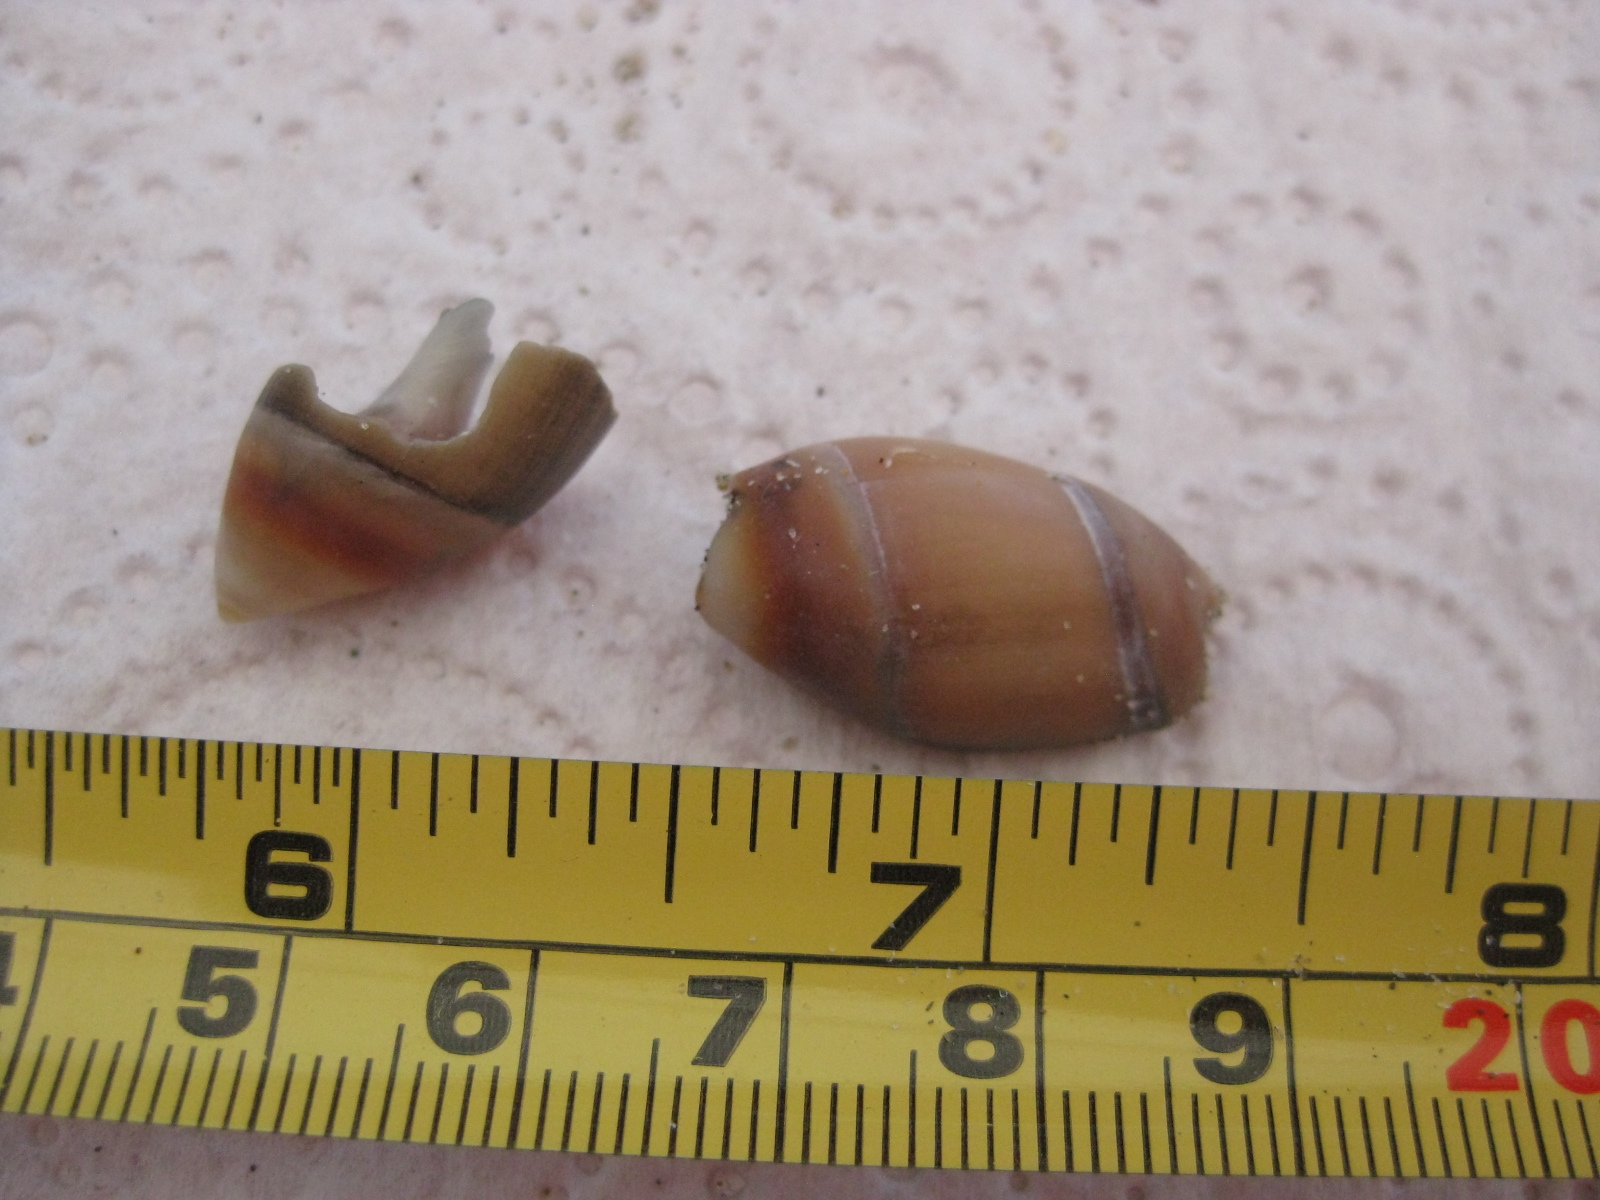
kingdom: Animalia
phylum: Mollusca
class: Gastropoda
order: Neogastropoda
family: Ancillariidae
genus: Amalda
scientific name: Amalda australis
